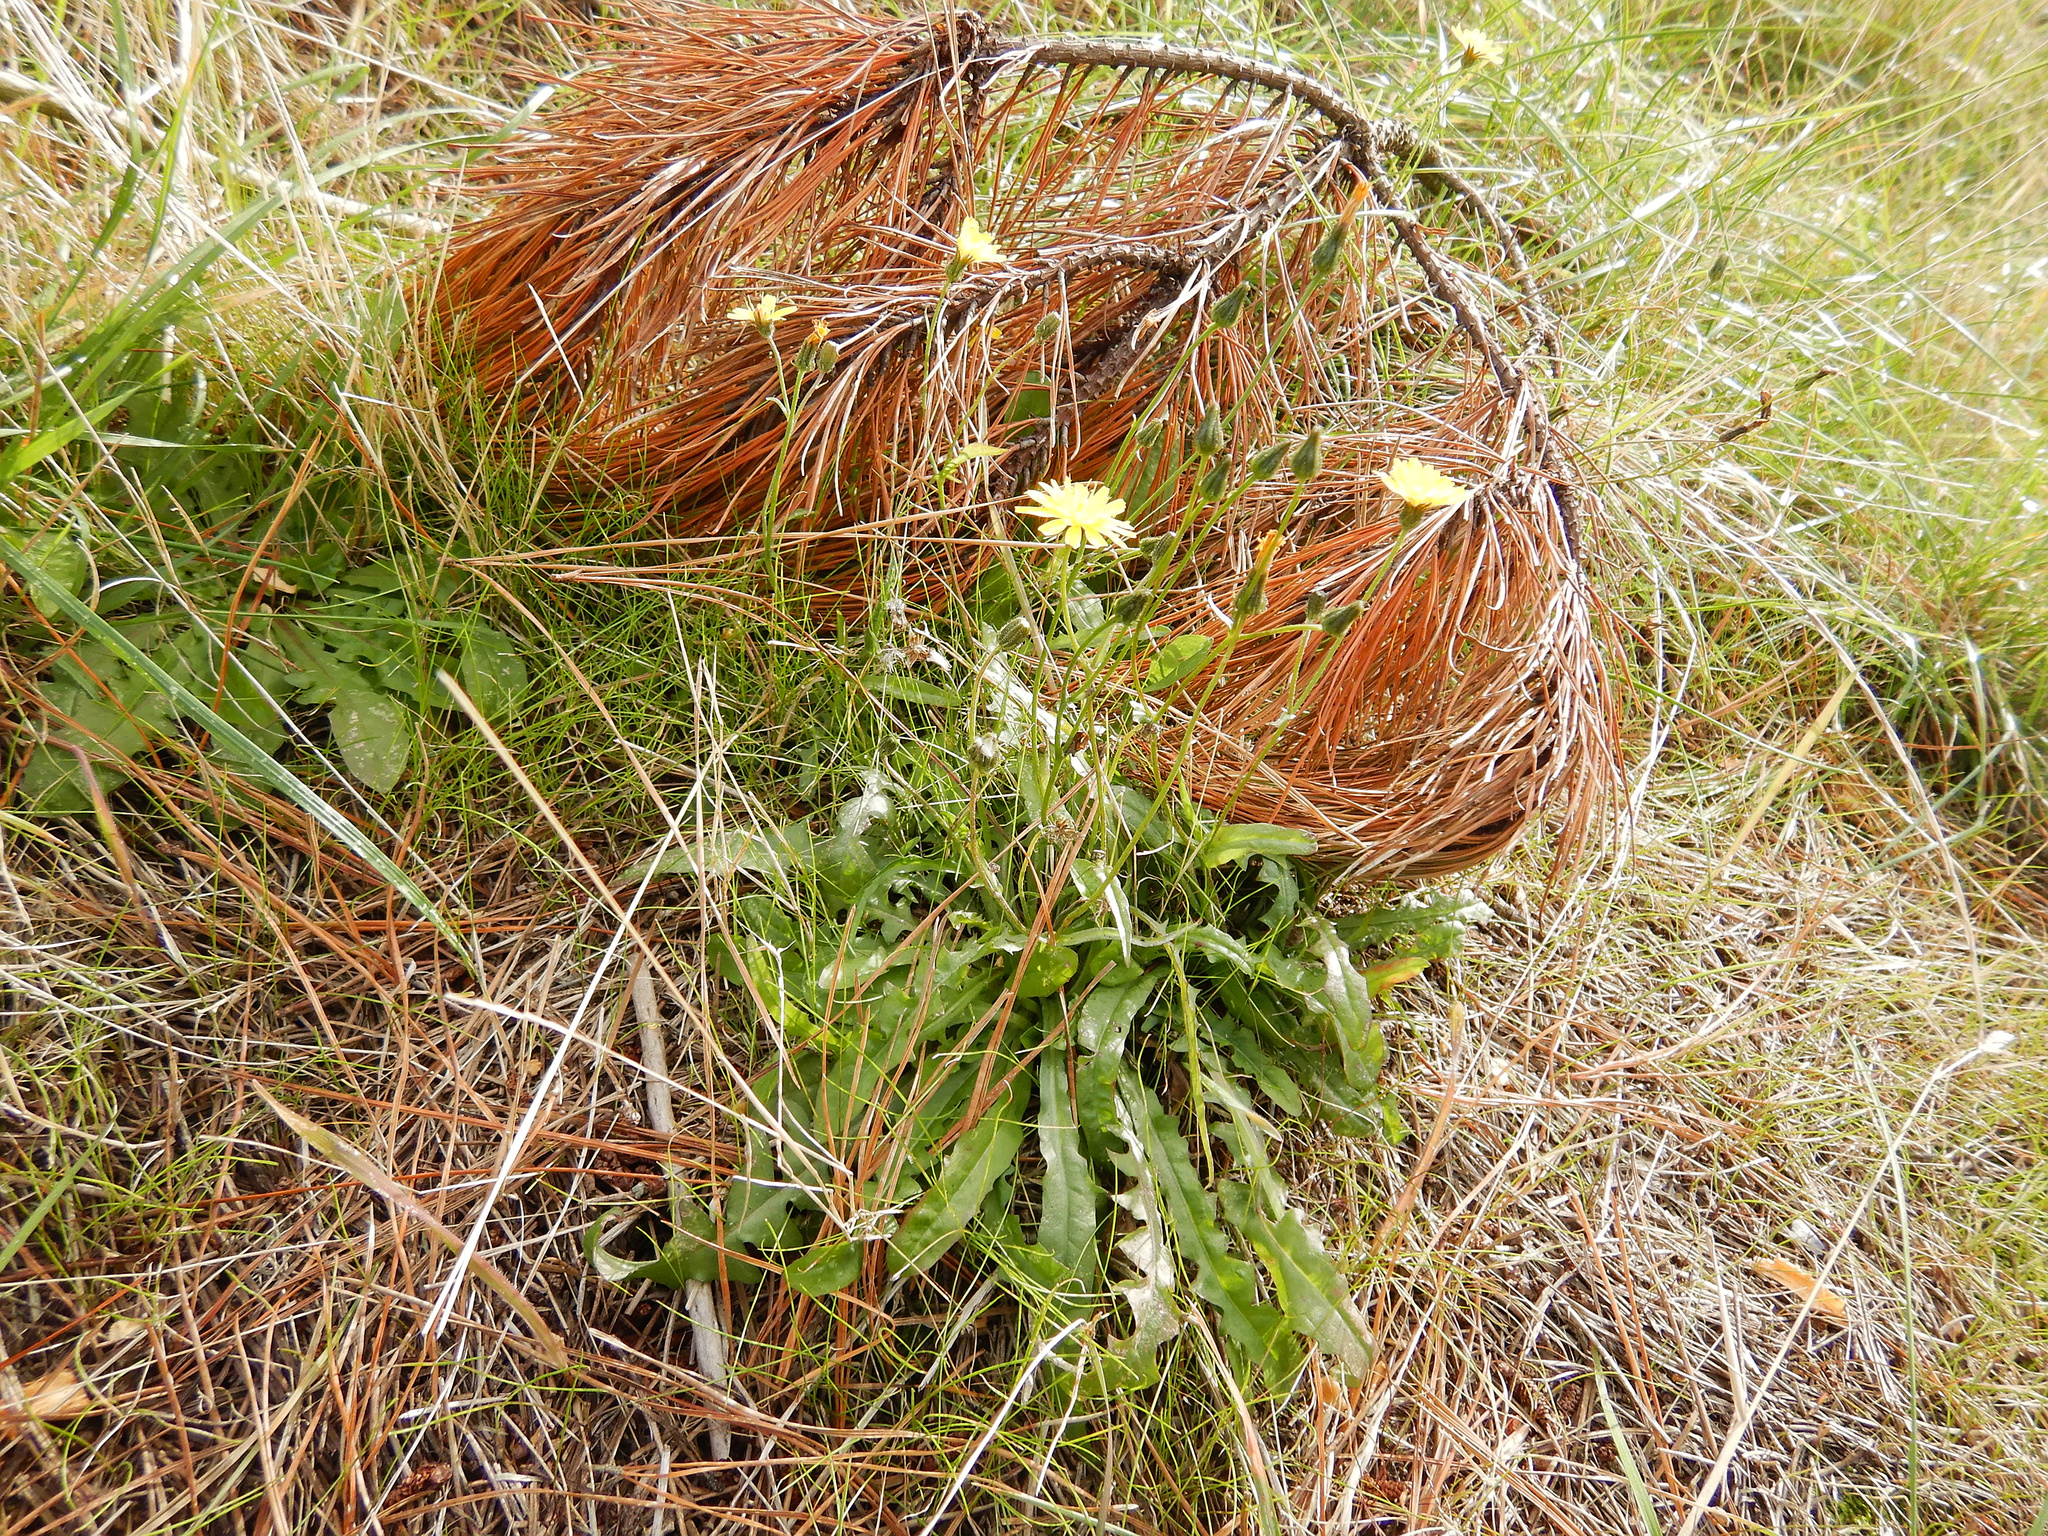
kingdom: Plantae
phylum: Tracheophyta
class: Magnoliopsida
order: Asterales
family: Asteraceae
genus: Crepis
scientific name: Crepis capillaris
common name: Smooth hawksbeard
